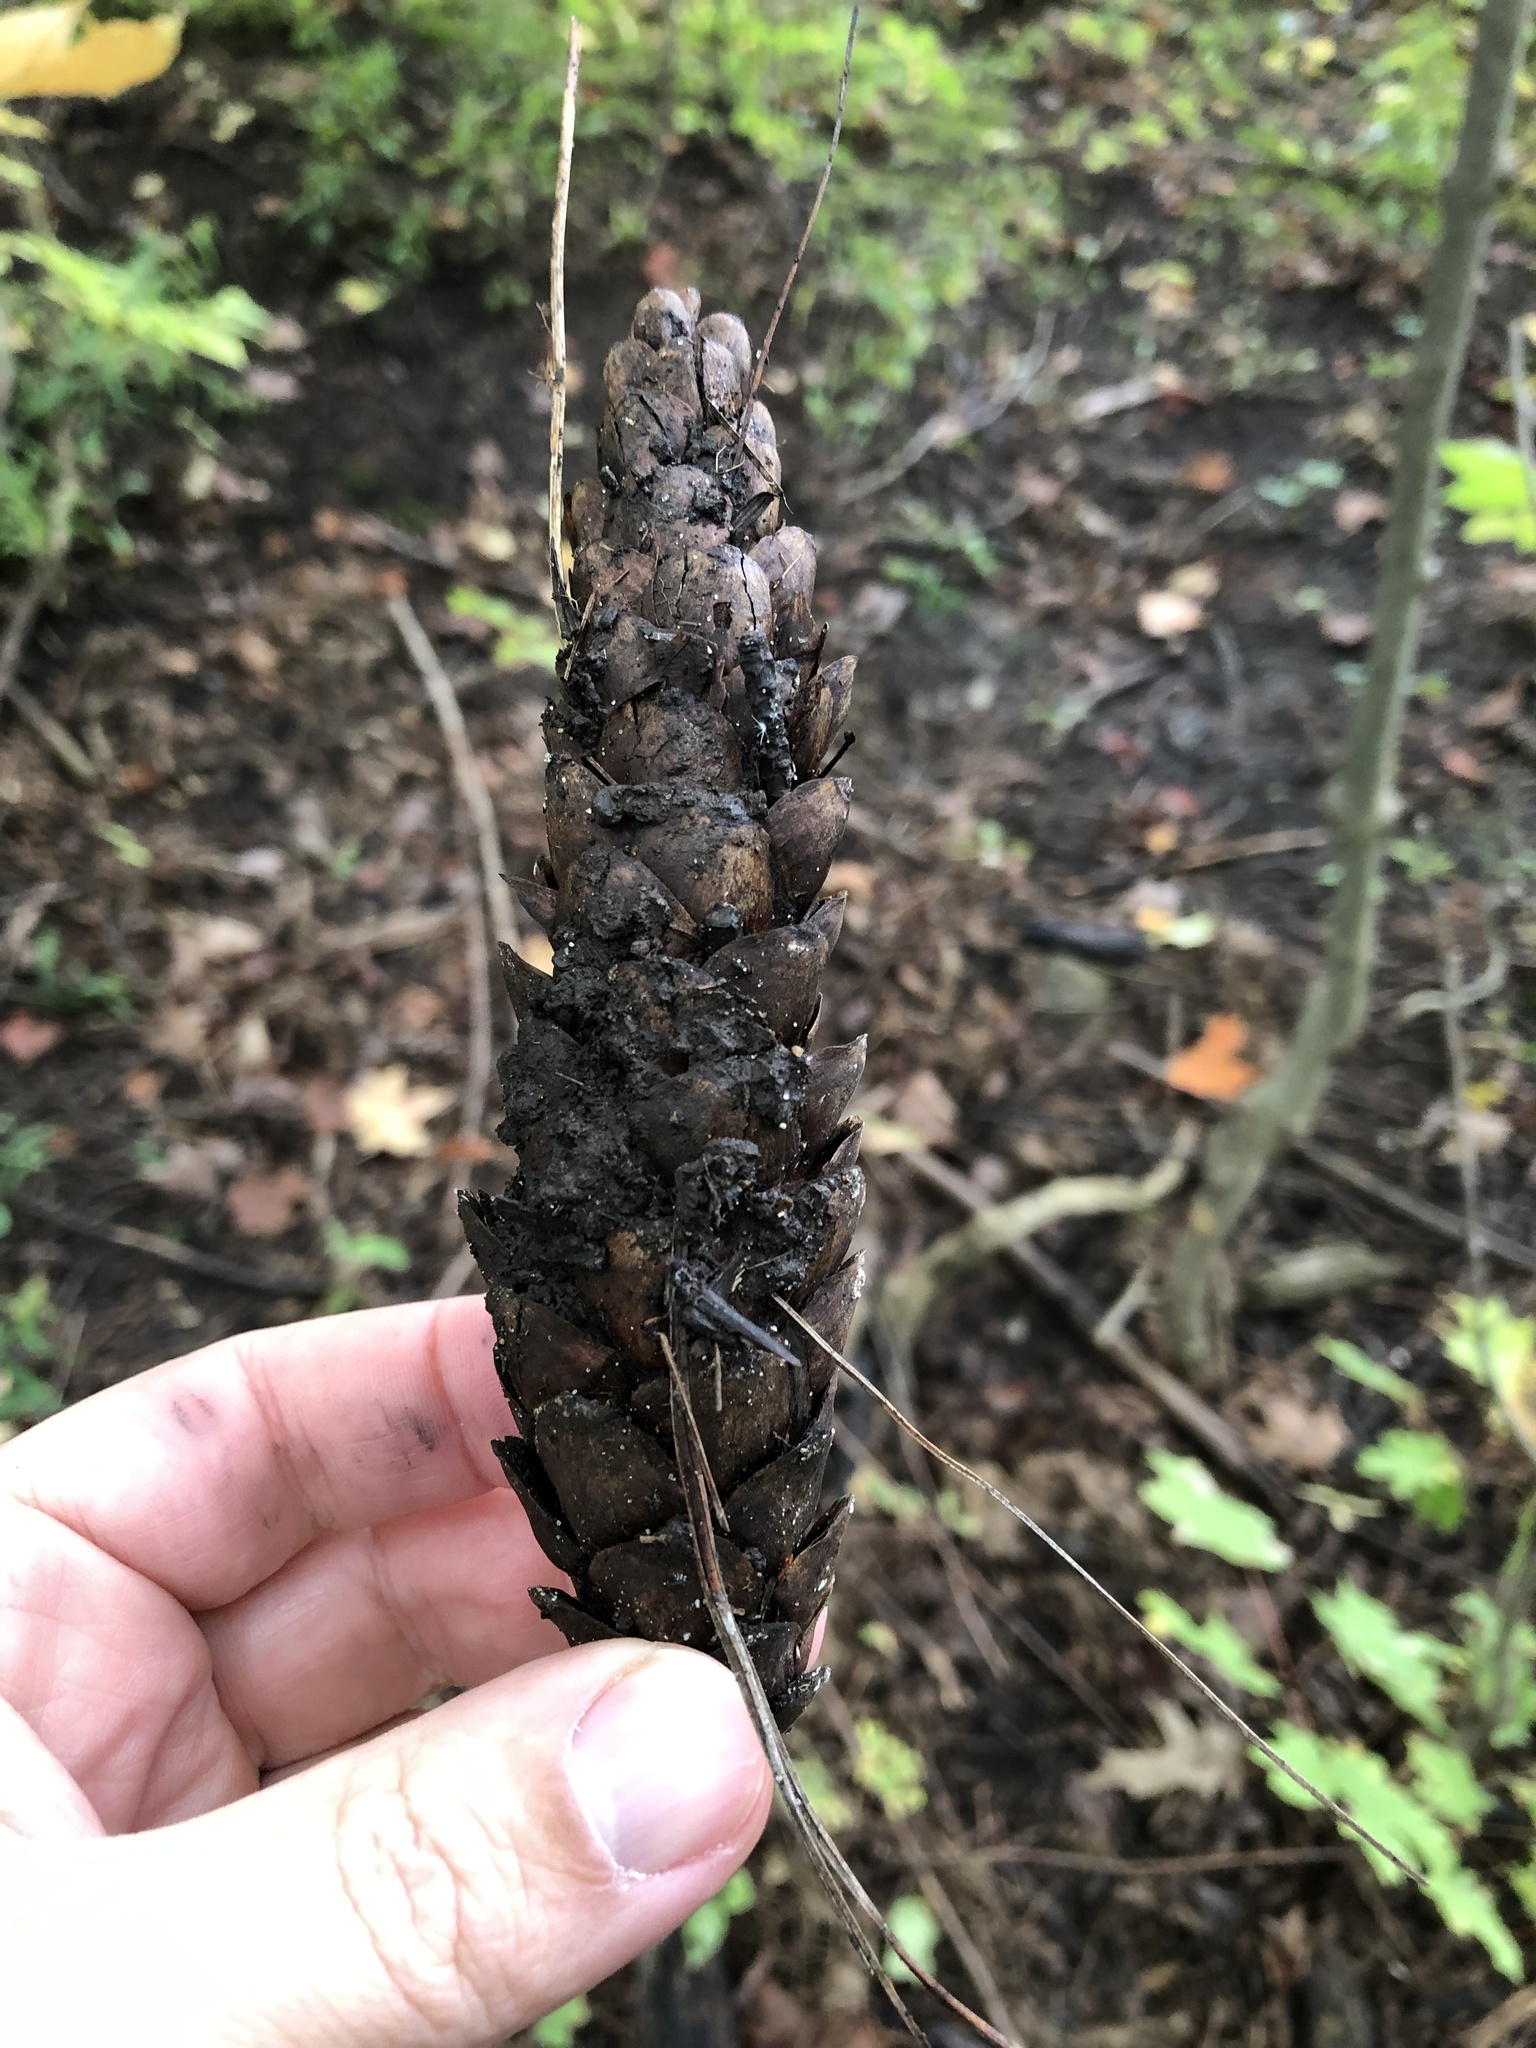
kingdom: Plantae
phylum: Tracheophyta
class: Pinopsida
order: Pinales
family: Pinaceae
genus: Pinus
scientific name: Pinus strobus
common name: Weymouth pine
